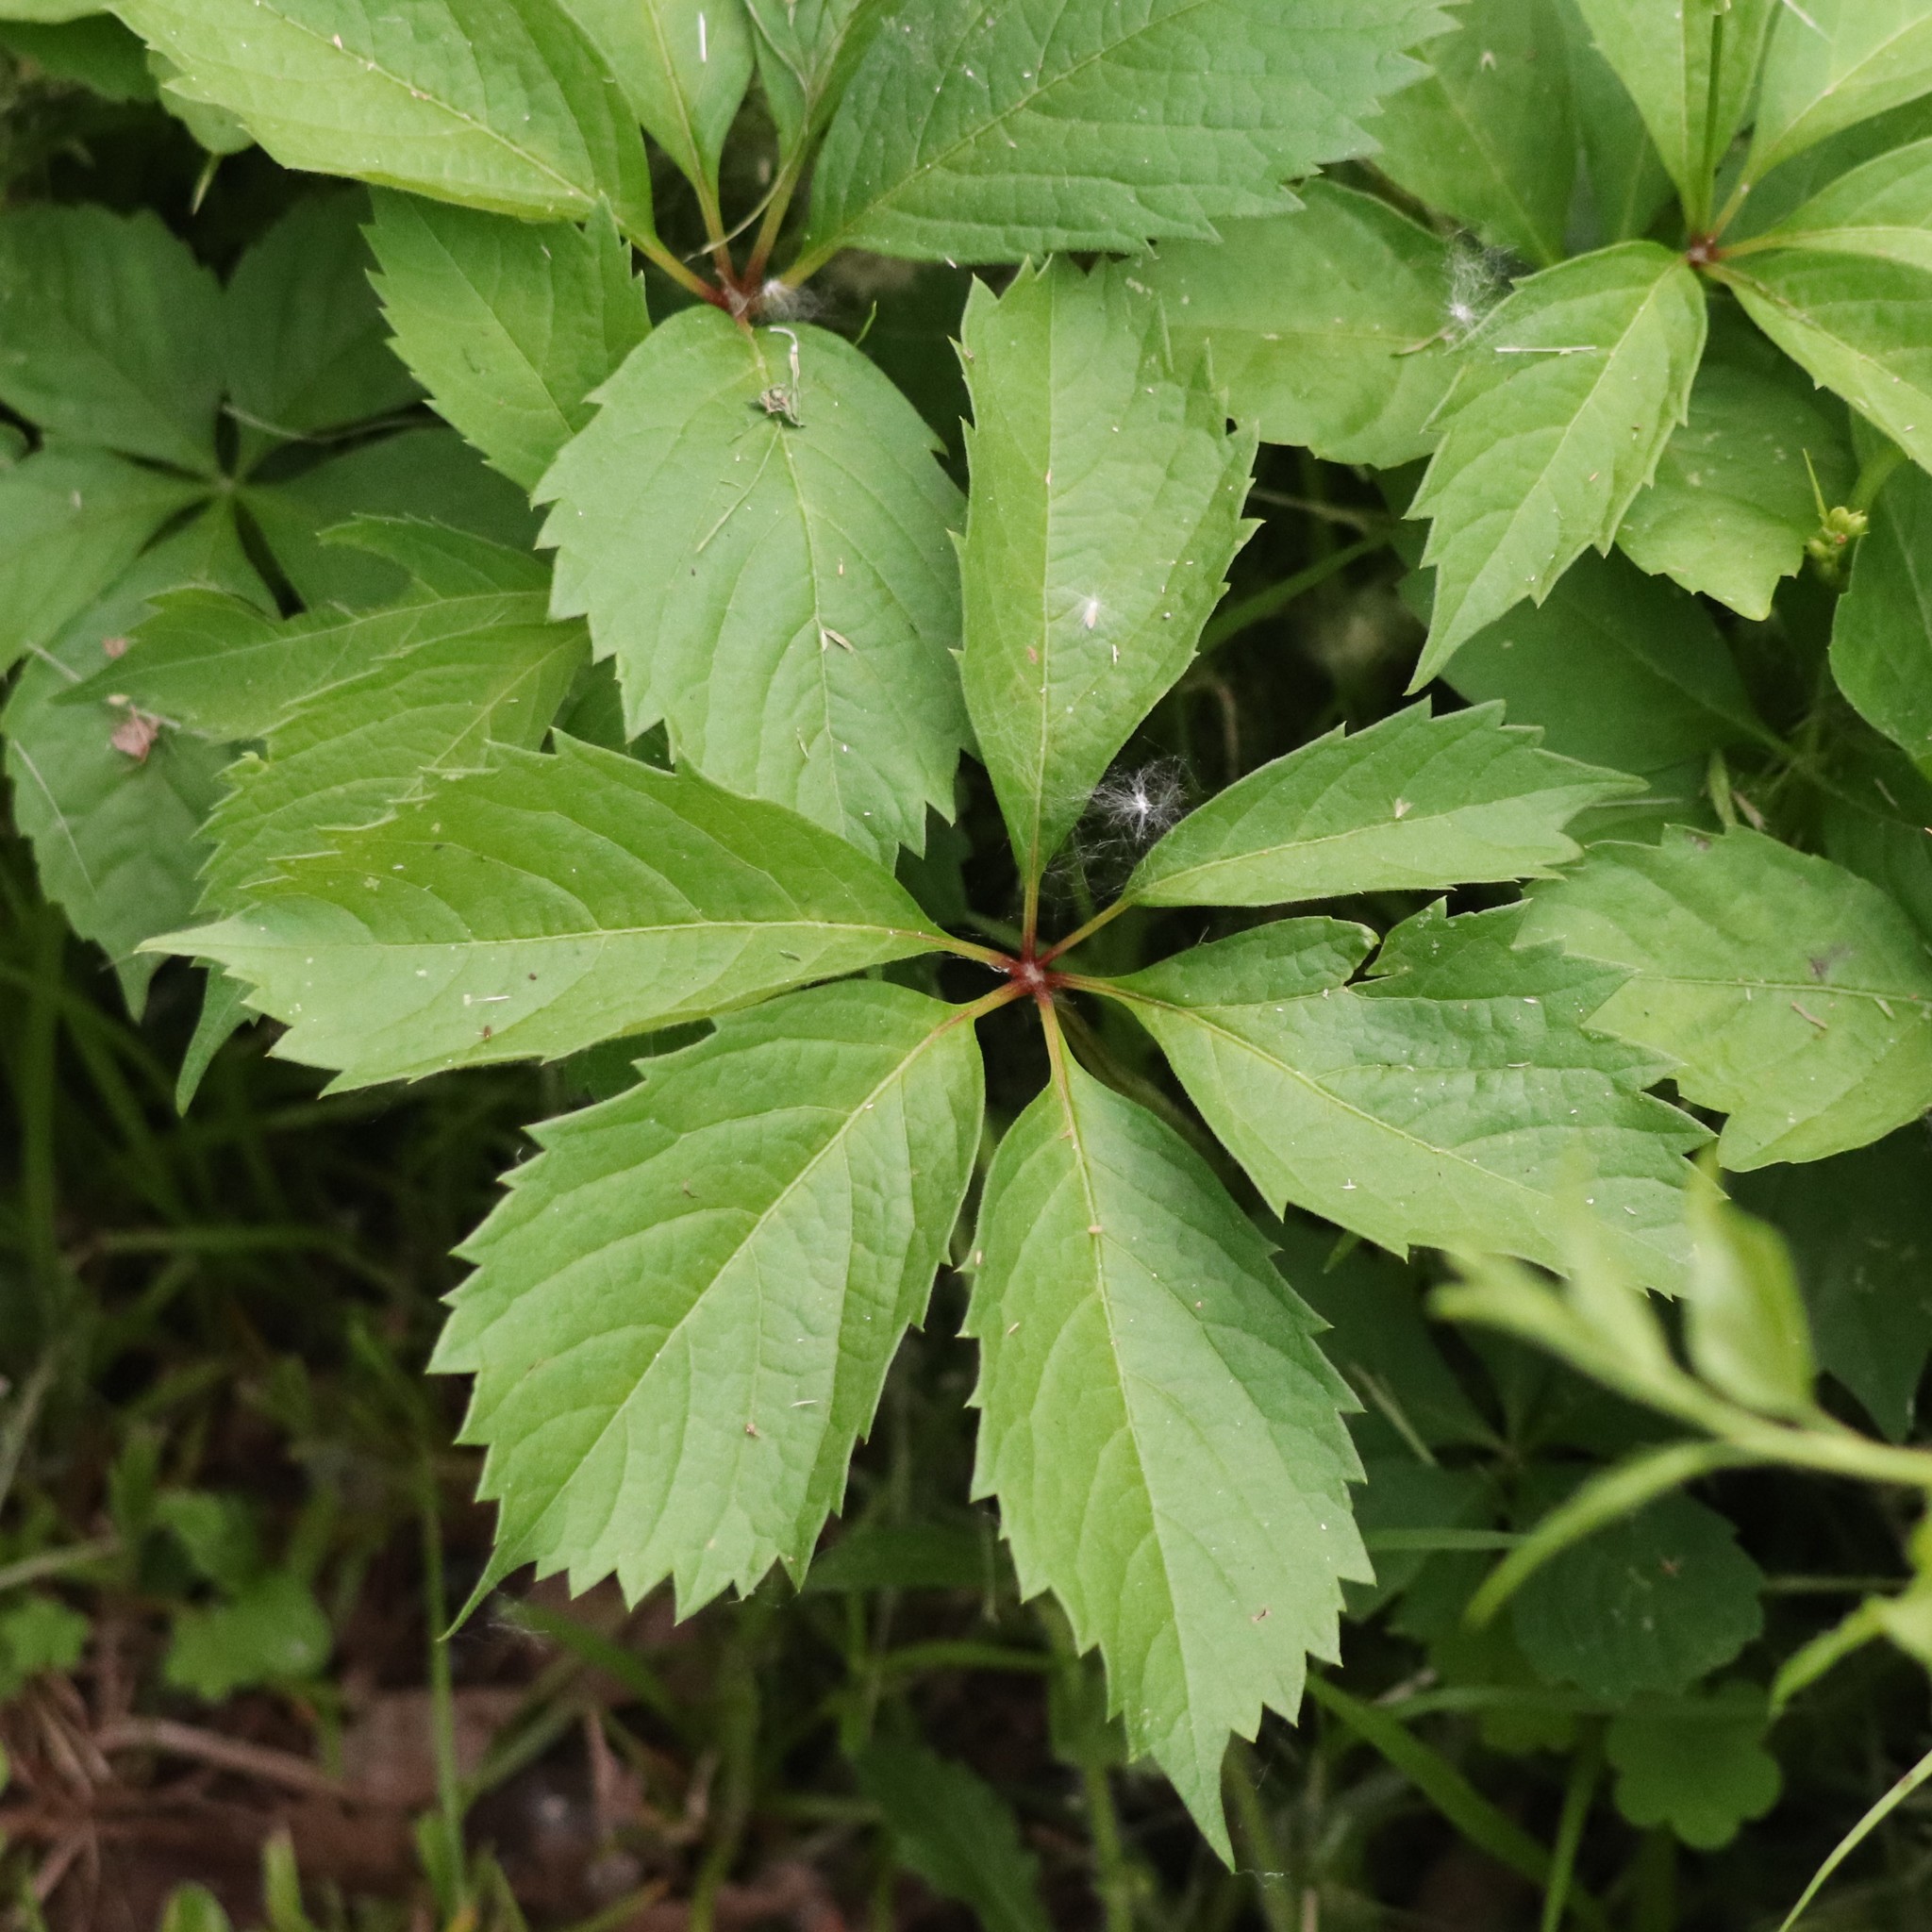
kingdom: Plantae
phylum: Tracheophyta
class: Magnoliopsida
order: Vitales
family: Vitaceae
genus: Parthenocissus
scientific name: Parthenocissus quinquefolia
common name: Virginia-creeper
